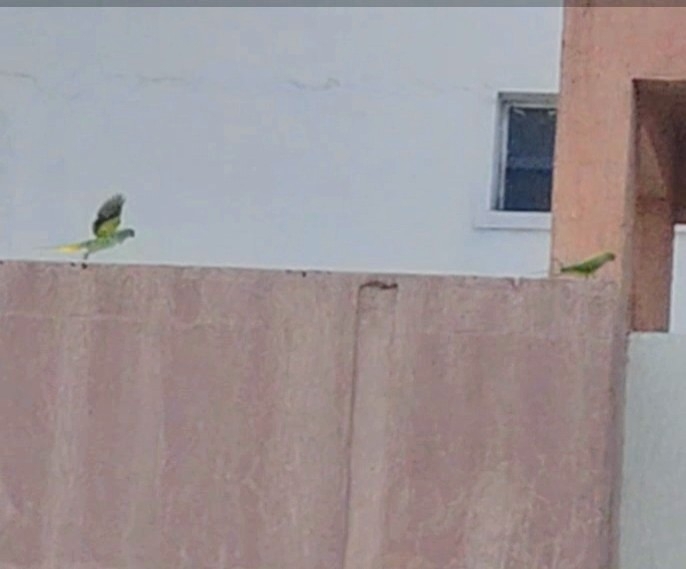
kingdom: Animalia
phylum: Chordata
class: Aves
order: Psittaciformes
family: Psittacidae
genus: Psittacula
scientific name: Psittacula krameri
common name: Rose-ringed parakeet
